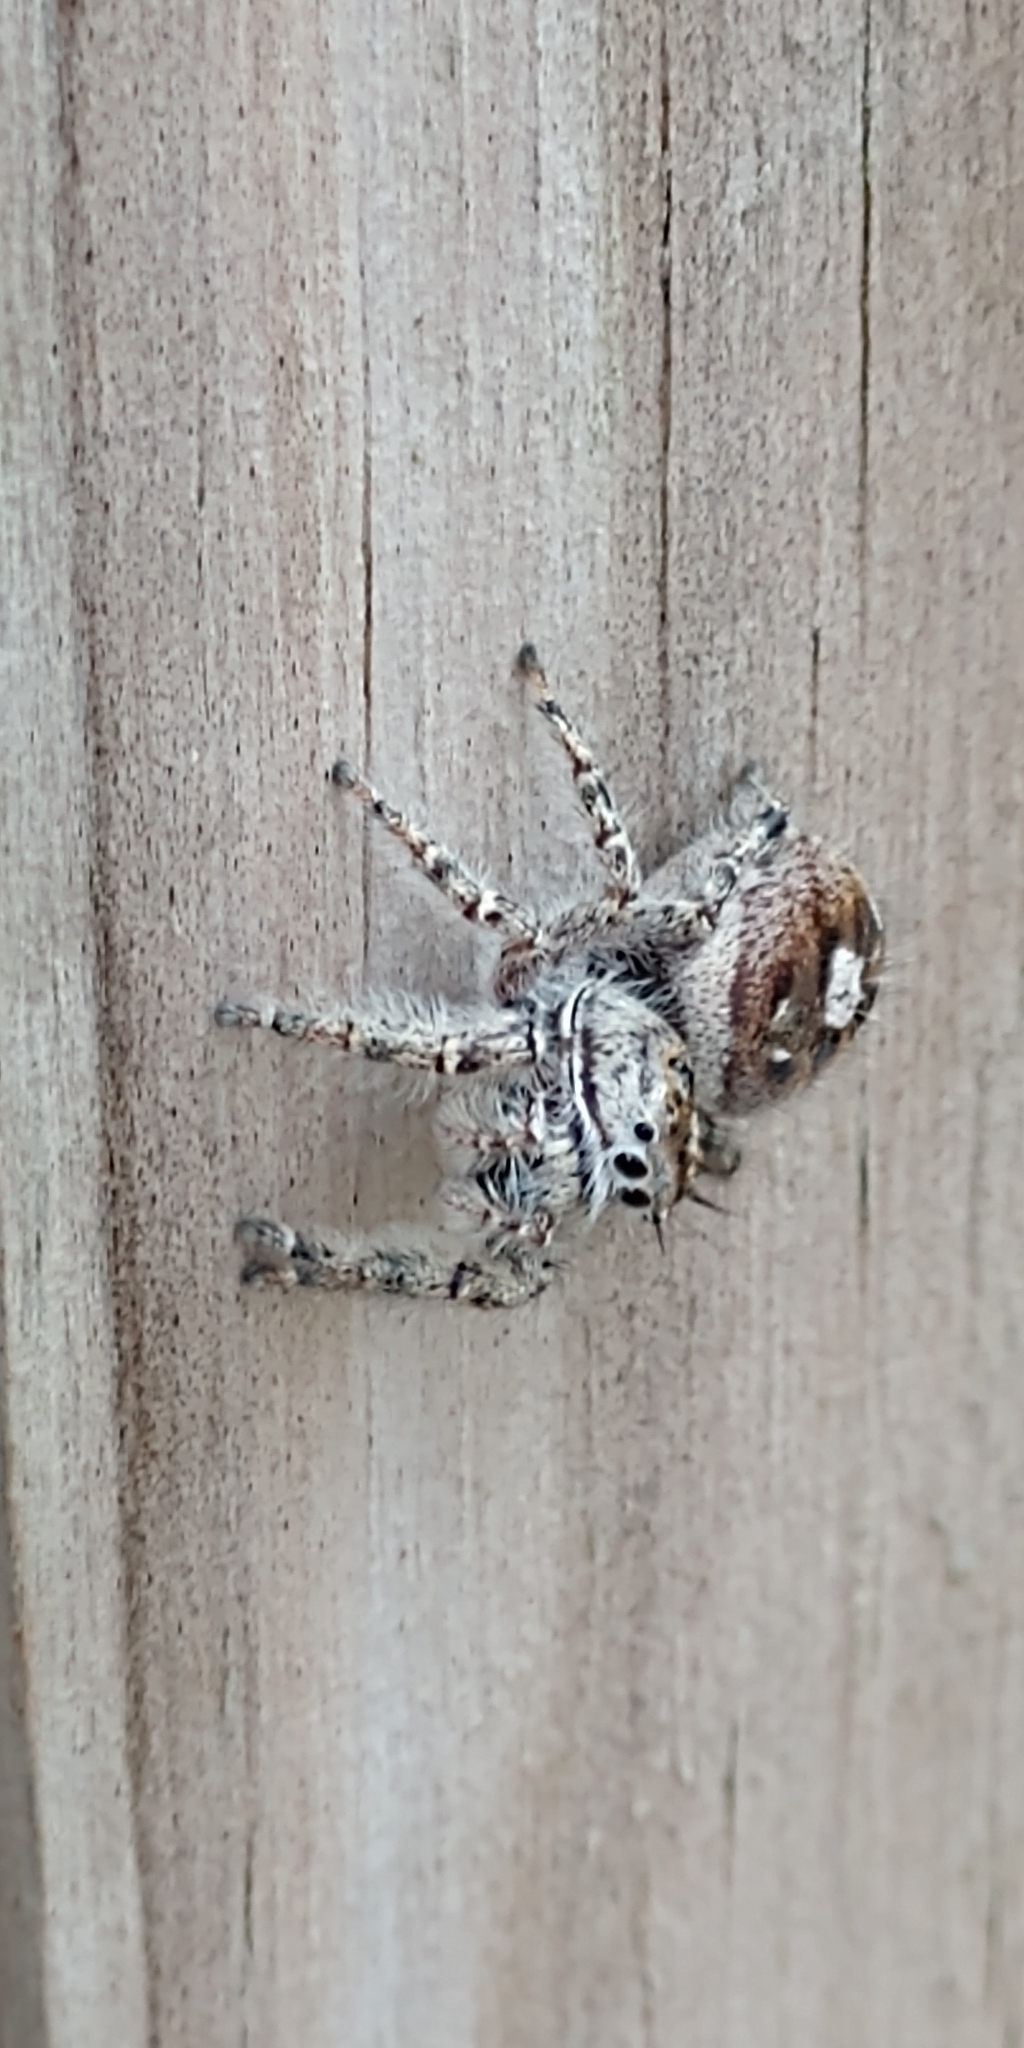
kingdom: Animalia
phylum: Arthropoda
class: Arachnida
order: Araneae
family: Salticidae
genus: Phidippus
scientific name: Phidippus putnami
